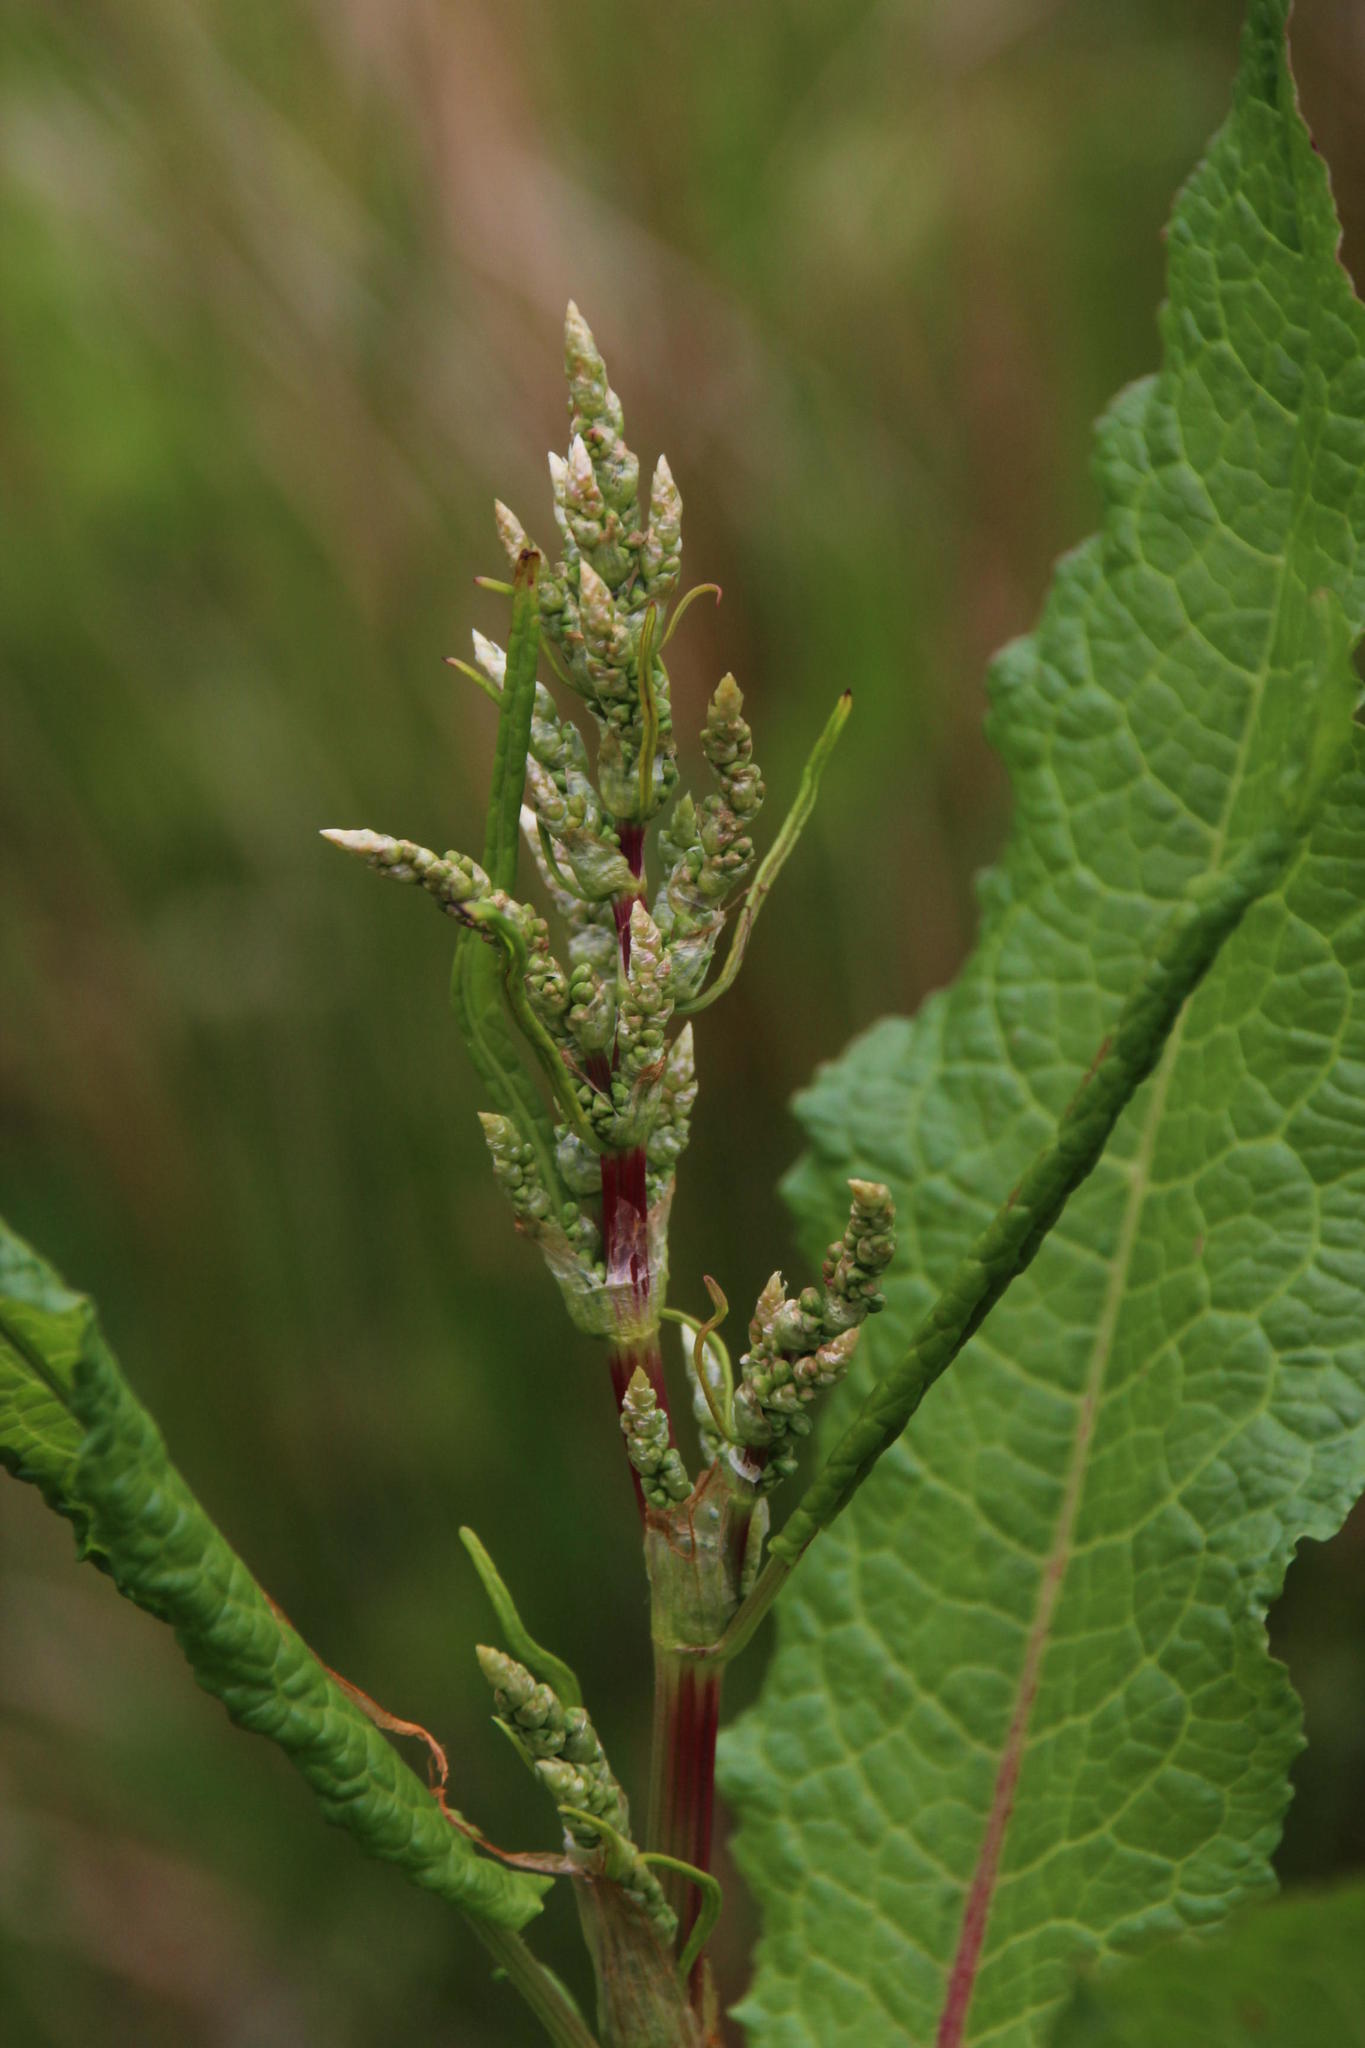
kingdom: Plantae
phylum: Tracheophyta
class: Magnoliopsida
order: Caryophyllales
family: Polygonaceae
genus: Rumex
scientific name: Rumex obtusifolius
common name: Bitter dock
